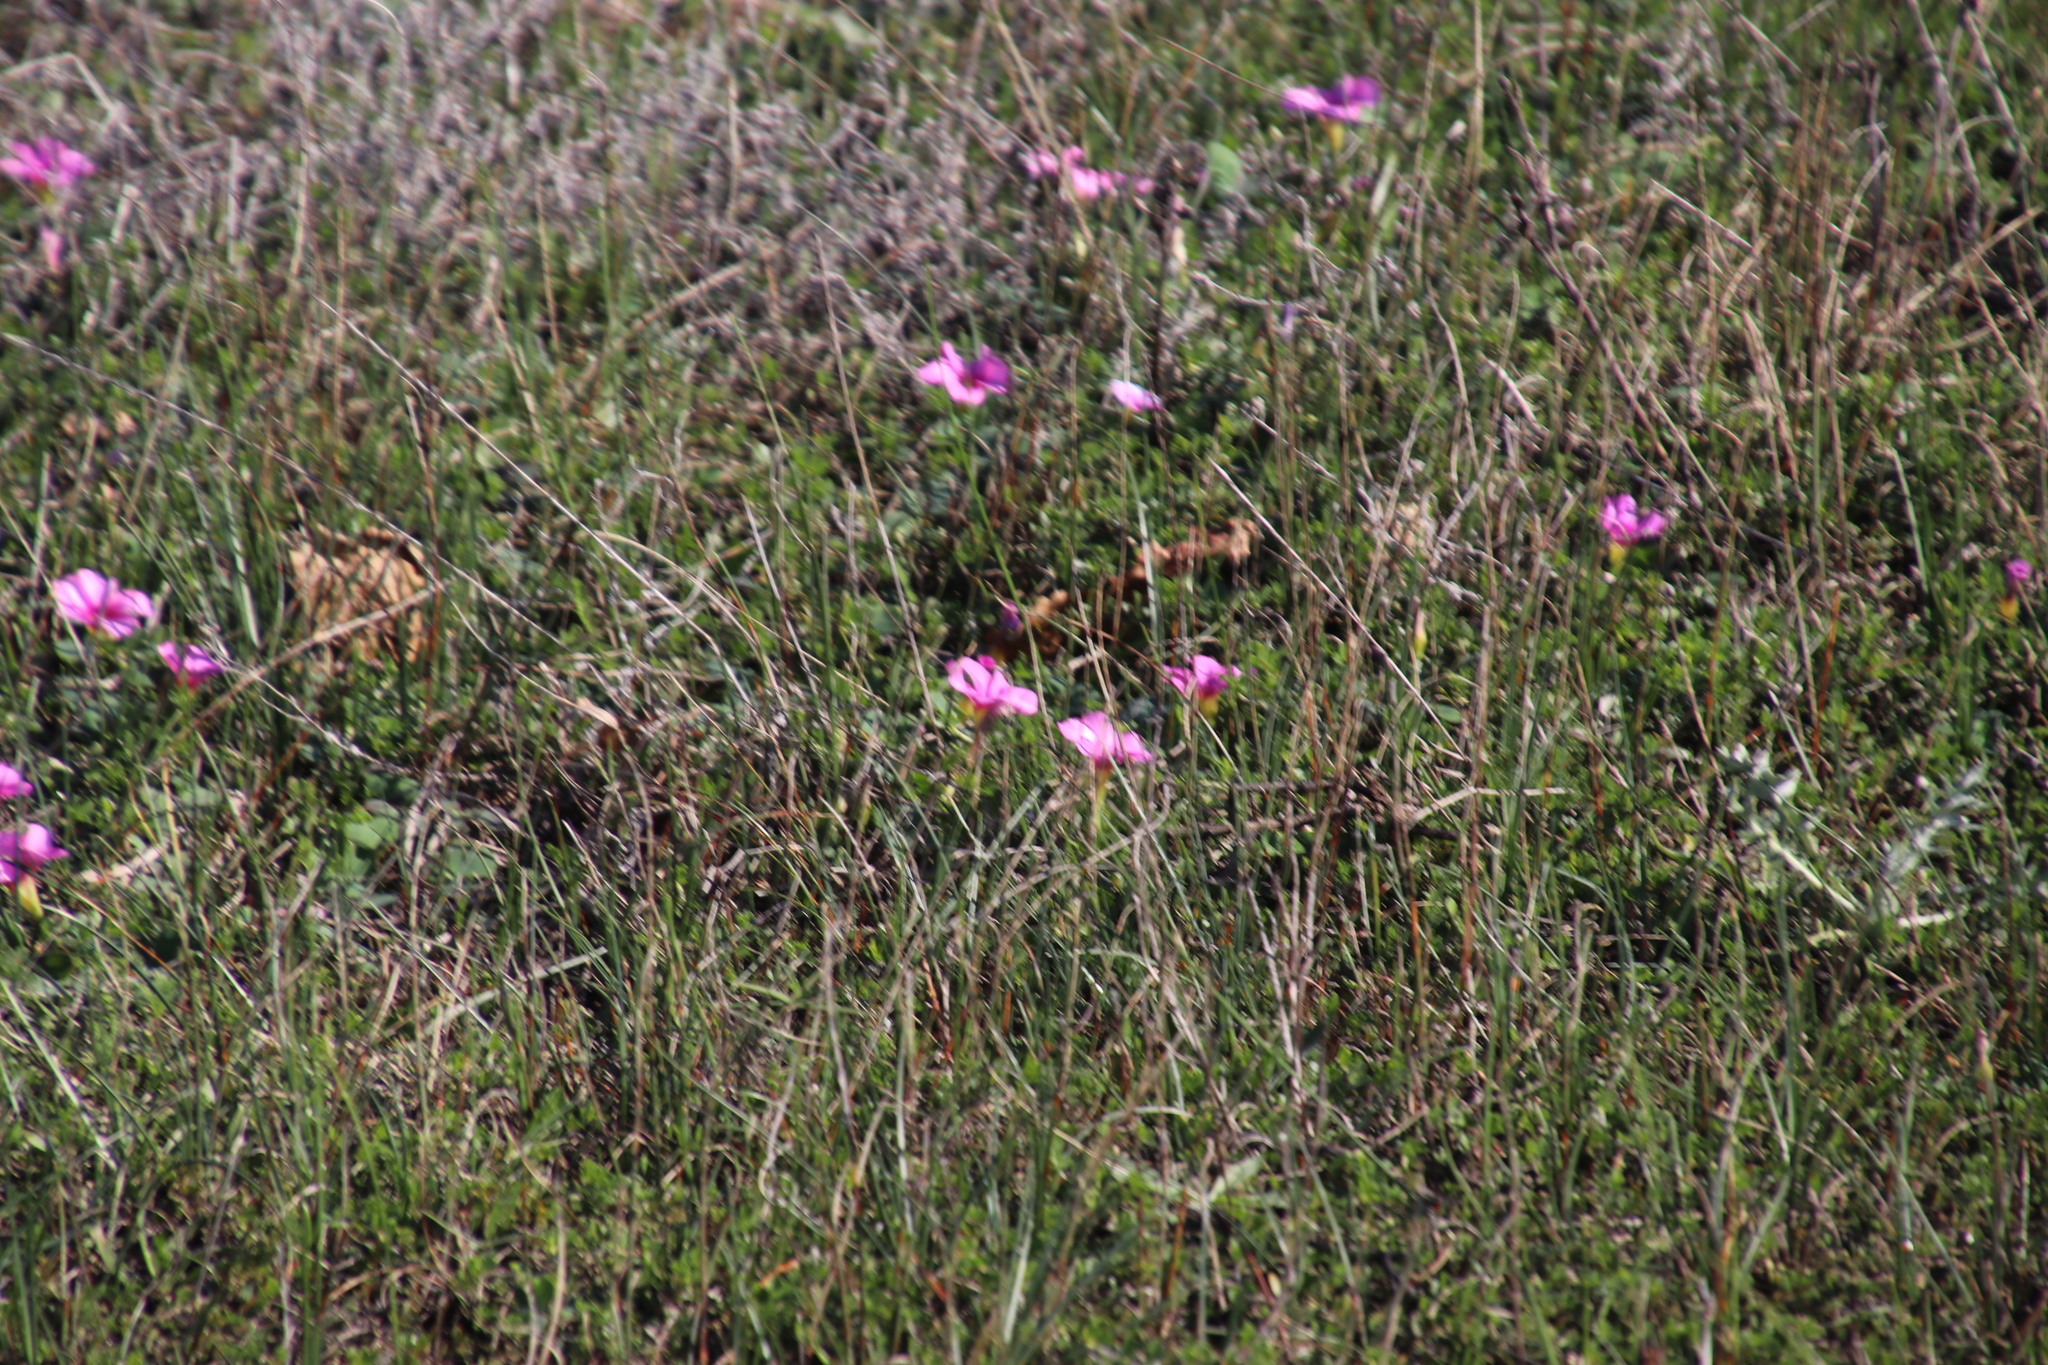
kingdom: Plantae
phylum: Tracheophyta
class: Magnoliopsida
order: Oxalidales
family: Oxalidaceae
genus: Oxalis
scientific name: Oxalis purpurea
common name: Purple woodsorrel
